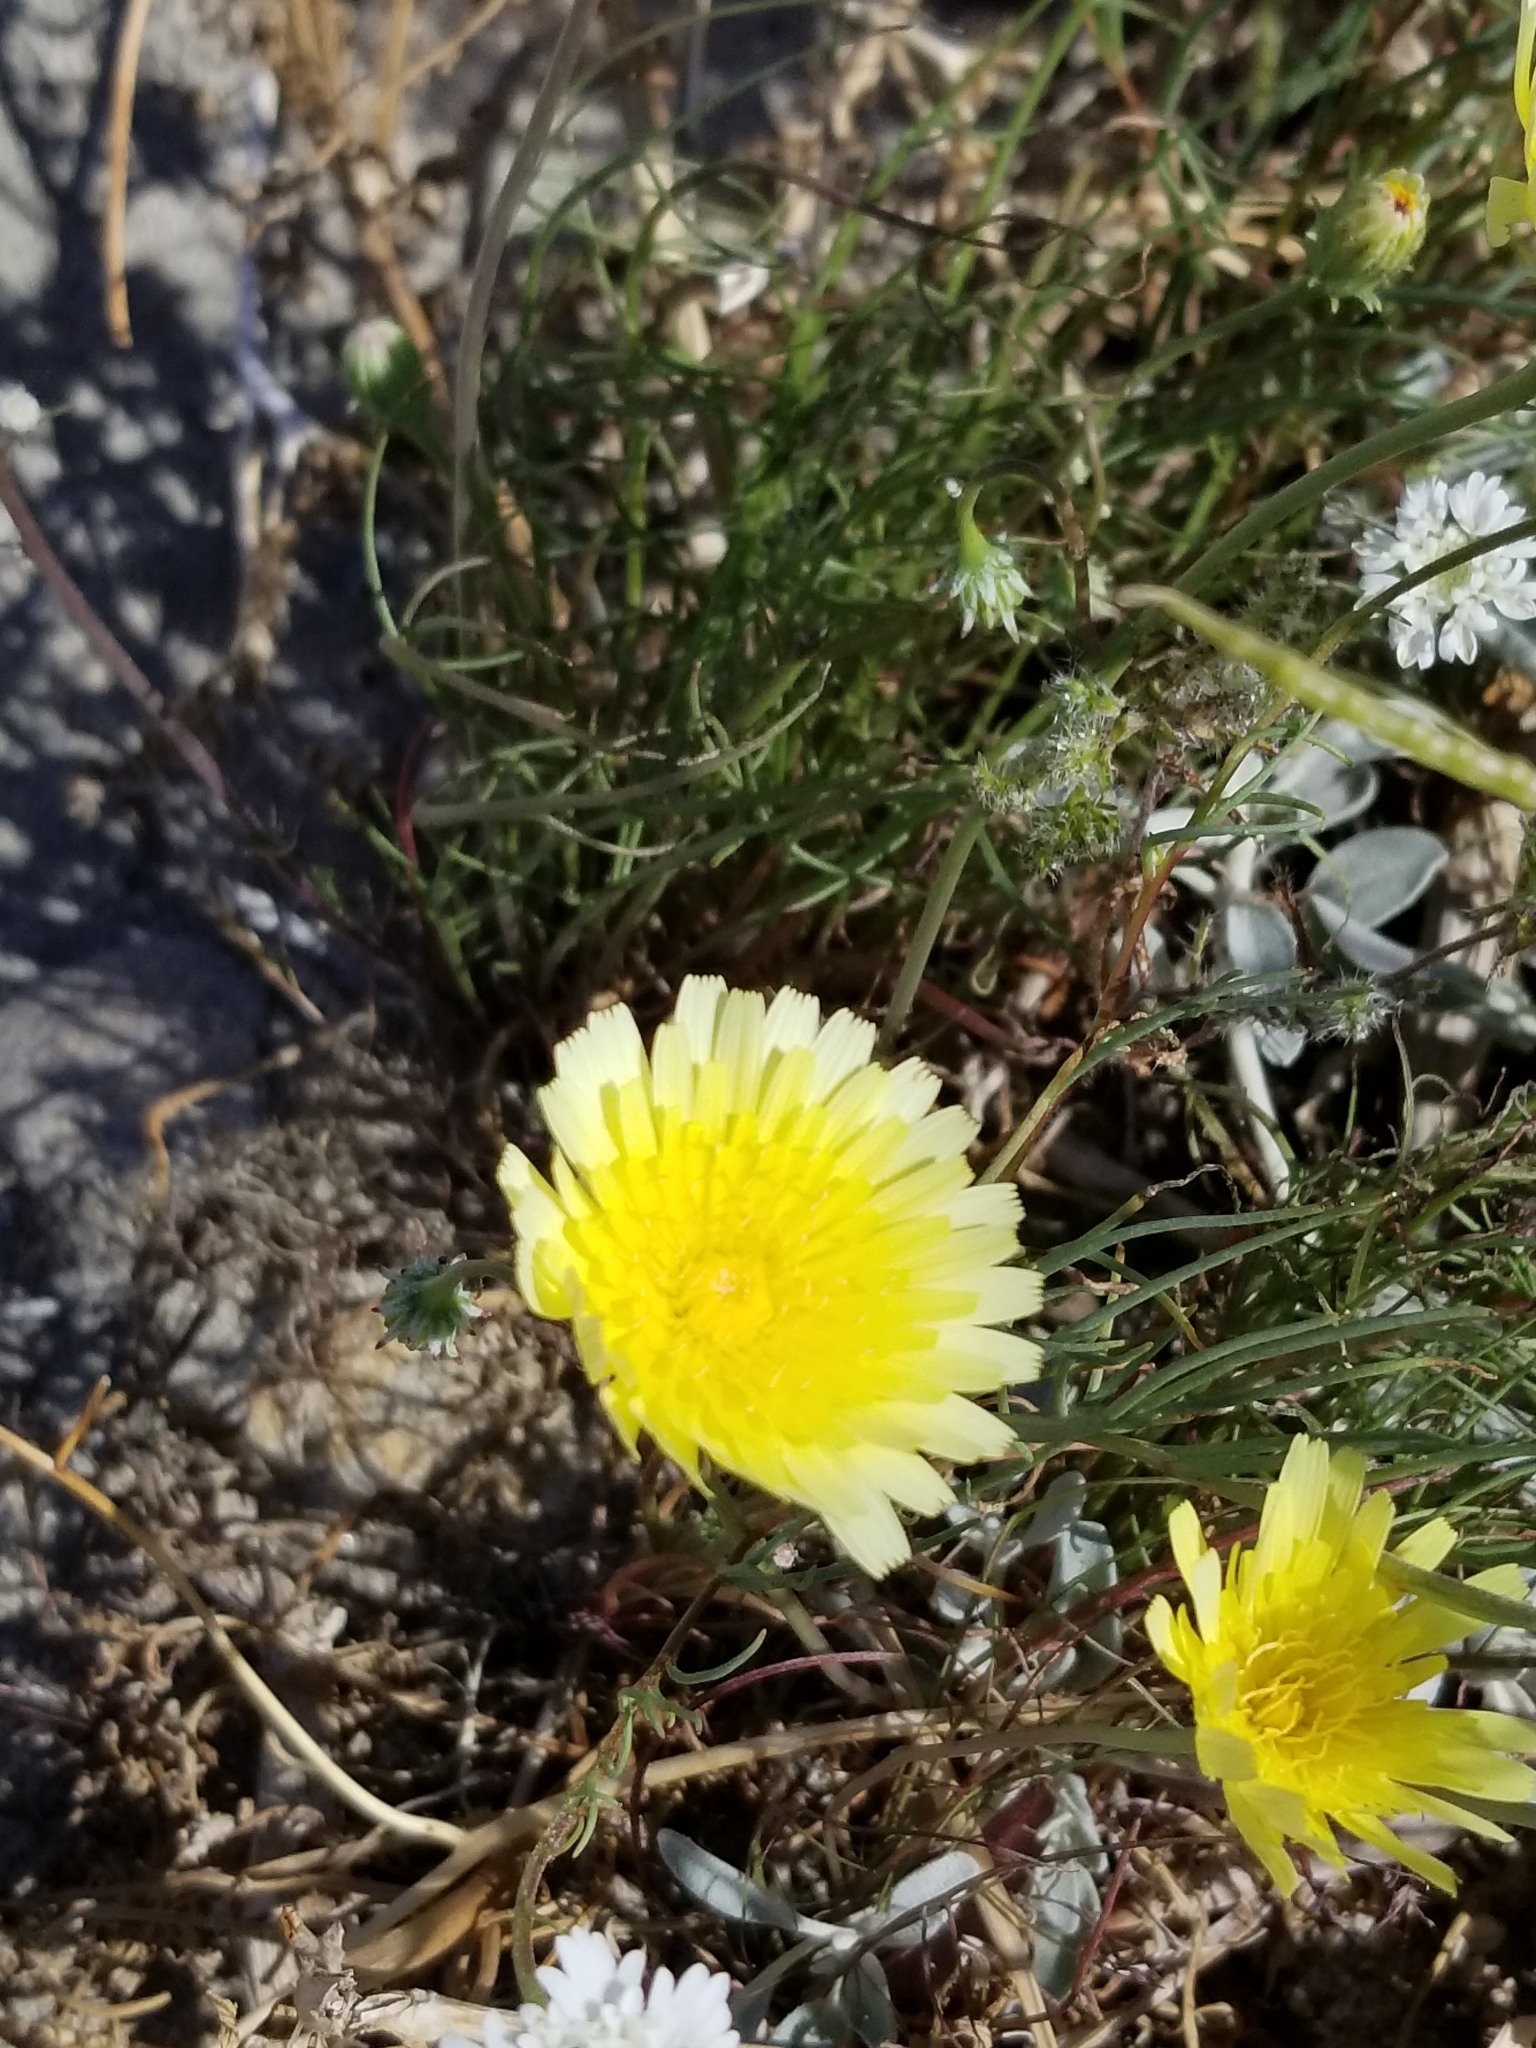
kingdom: Plantae
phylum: Tracheophyta
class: Magnoliopsida
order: Asterales
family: Asteraceae
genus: Malacothrix
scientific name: Malacothrix glabrata
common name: Smooth desert-dandelion
